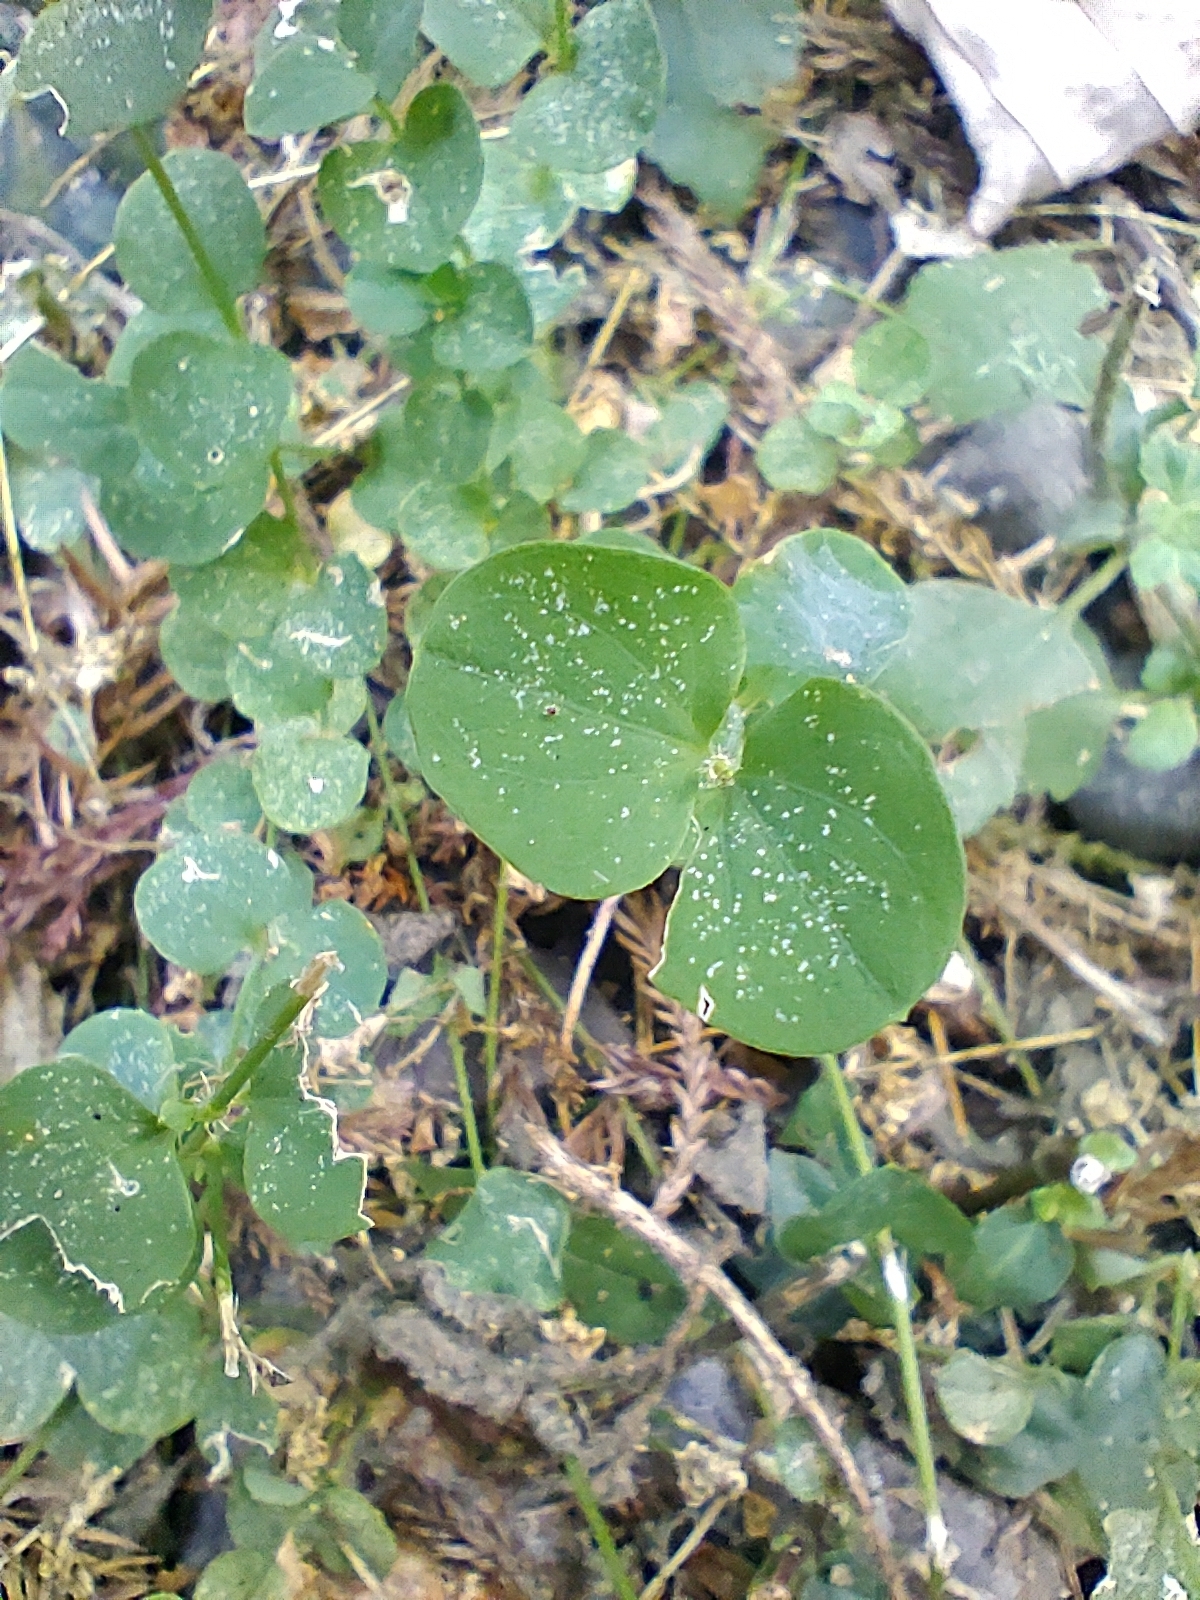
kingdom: Plantae
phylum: Tracheophyta
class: Magnoliopsida
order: Caryophyllales
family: Caryophyllaceae
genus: Drymaria
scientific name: Drymaria cordata
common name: Whitesnow
